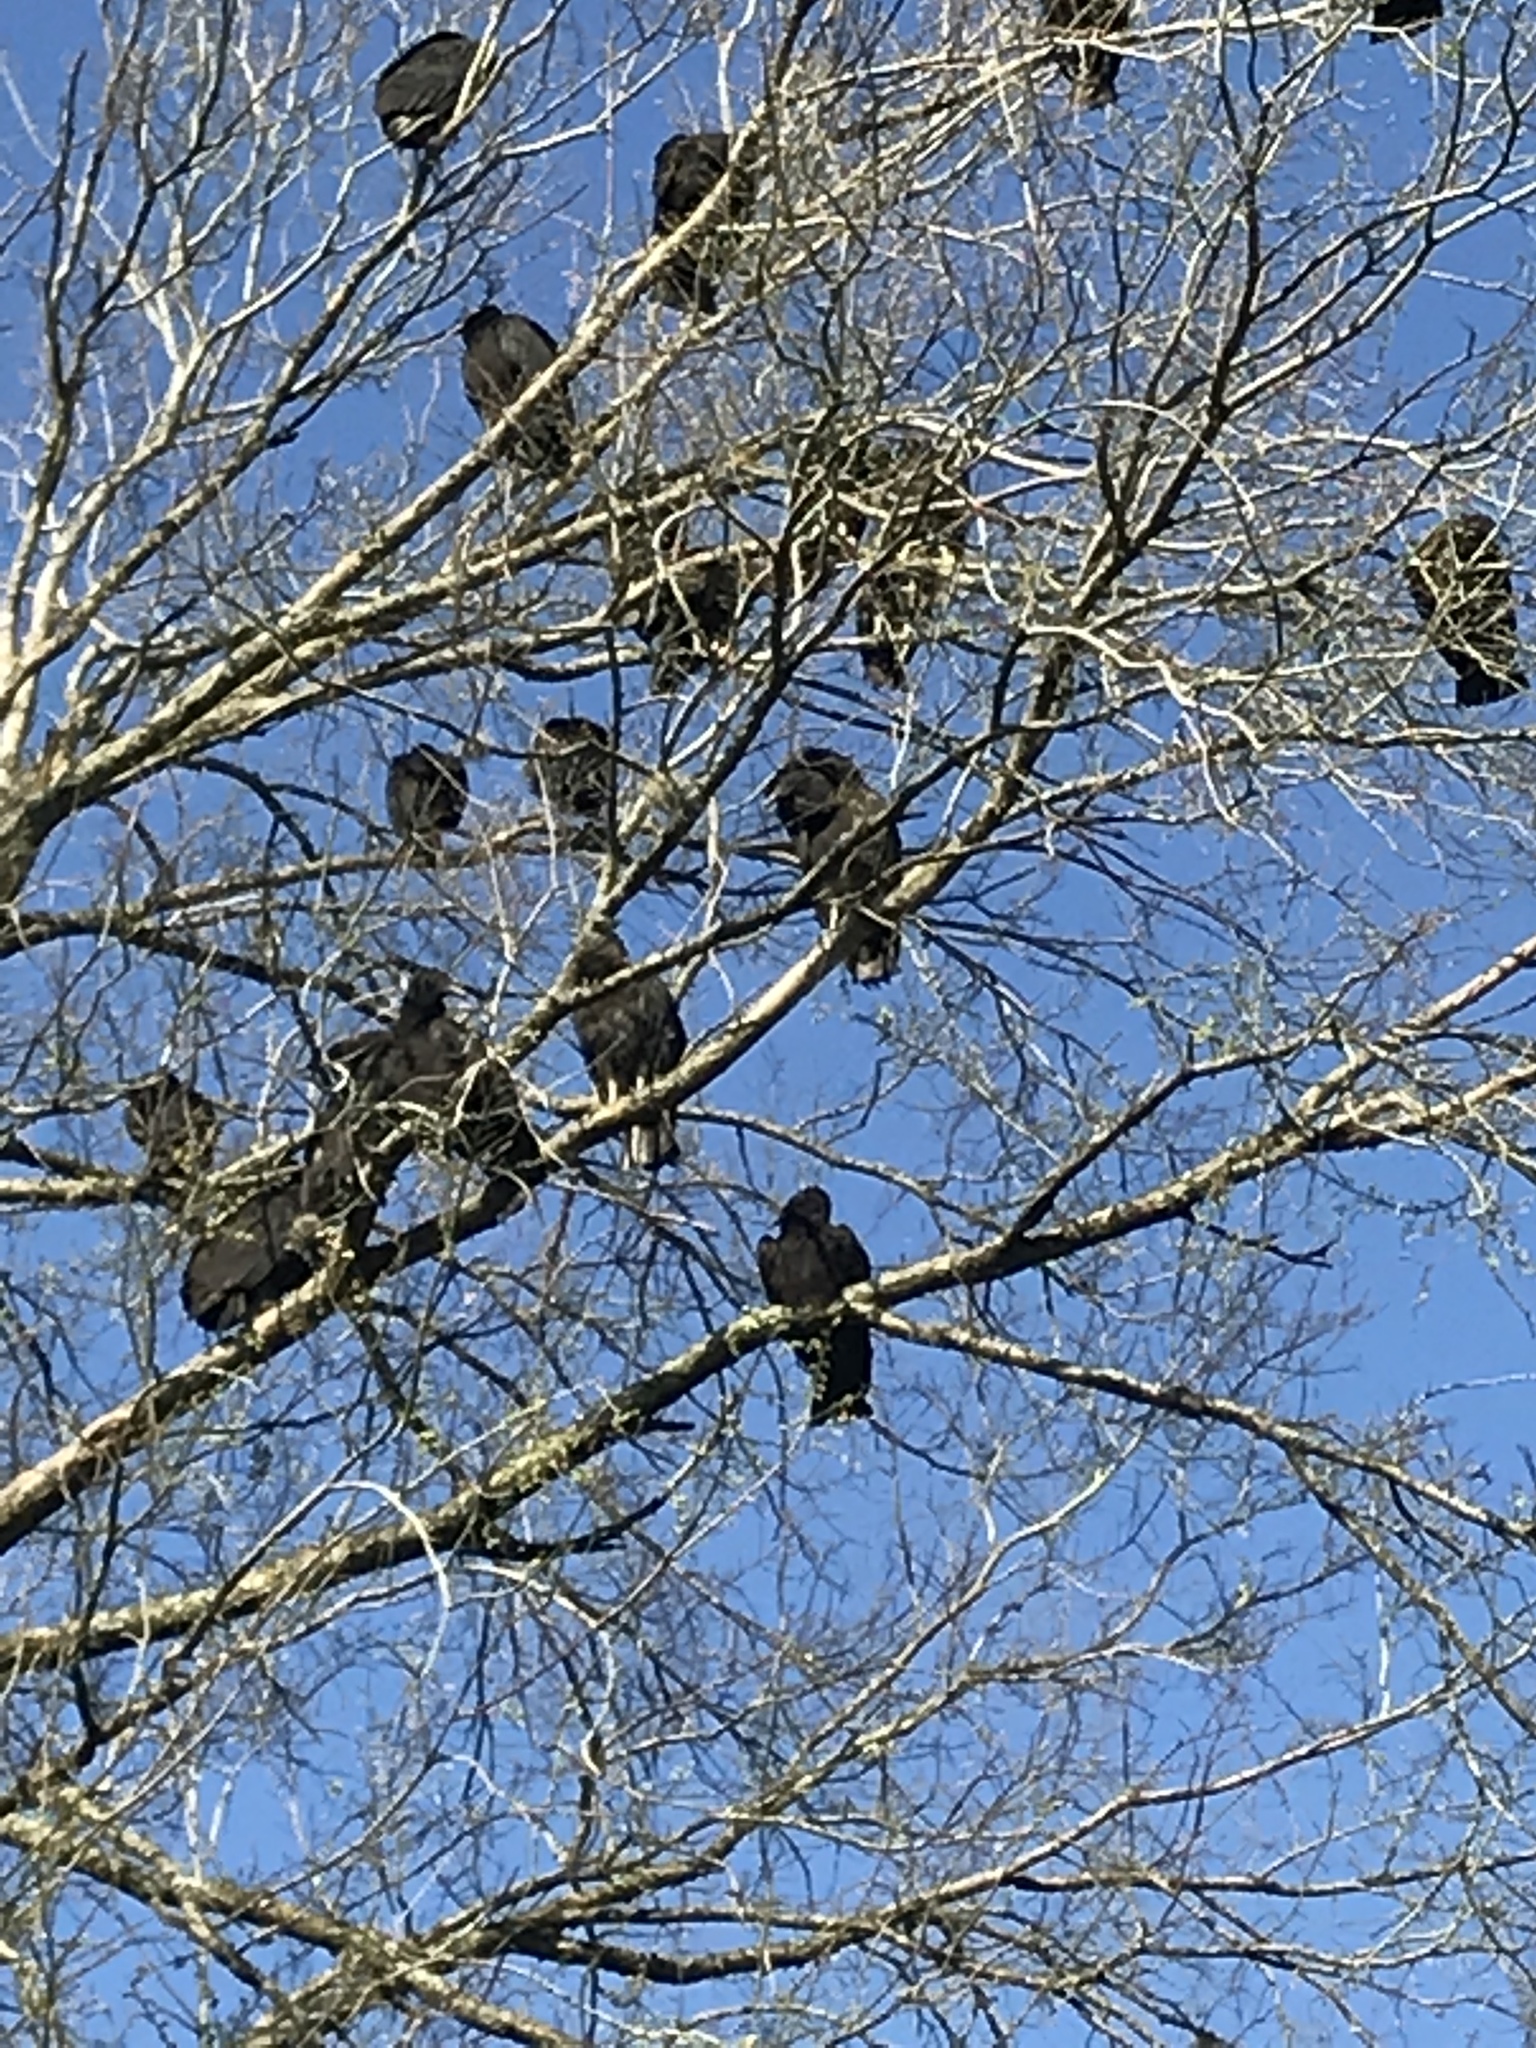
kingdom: Animalia
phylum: Chordata
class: Aves
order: Accipitriformes
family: Cathartidae
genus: Coragyps
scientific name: Coragyps atratus
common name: Black vulture
